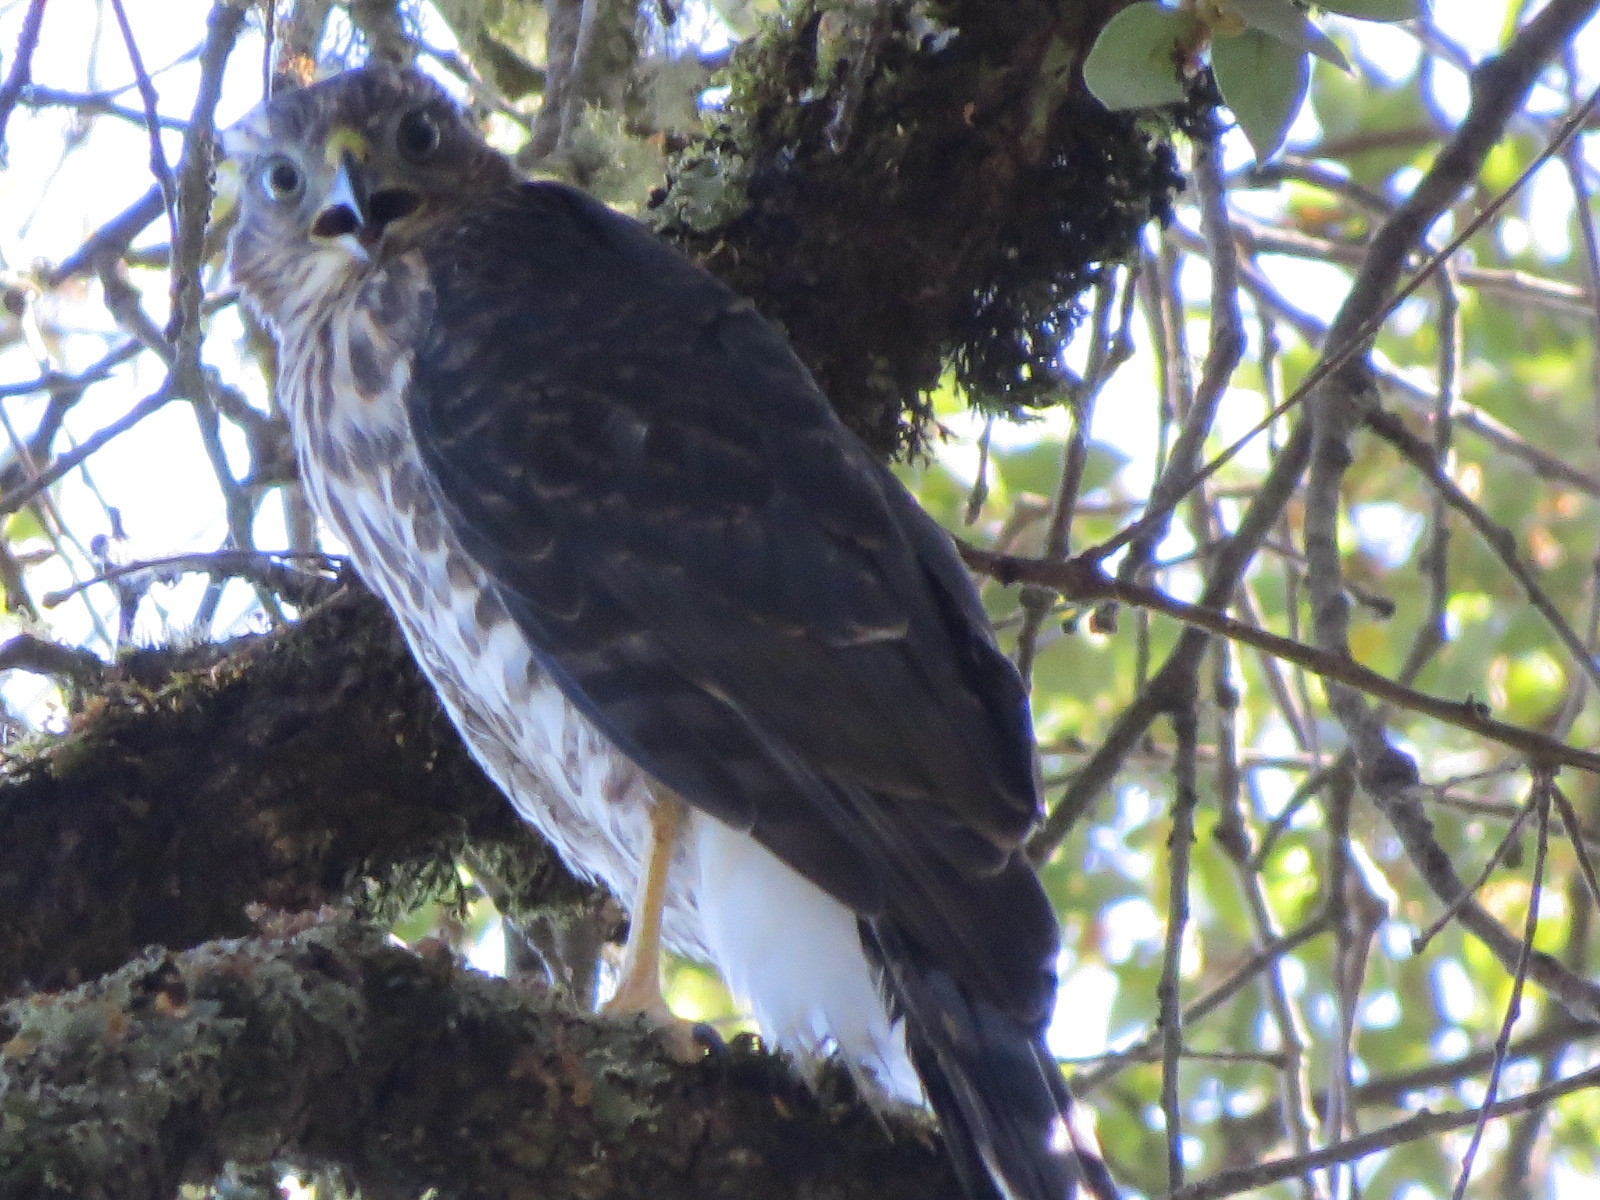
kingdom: Animalia
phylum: Chordata
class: Aves
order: Accipitriformes
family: Accipitridae
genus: Accipiter
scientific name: Accipiter cooperii
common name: Cooper's hawk
